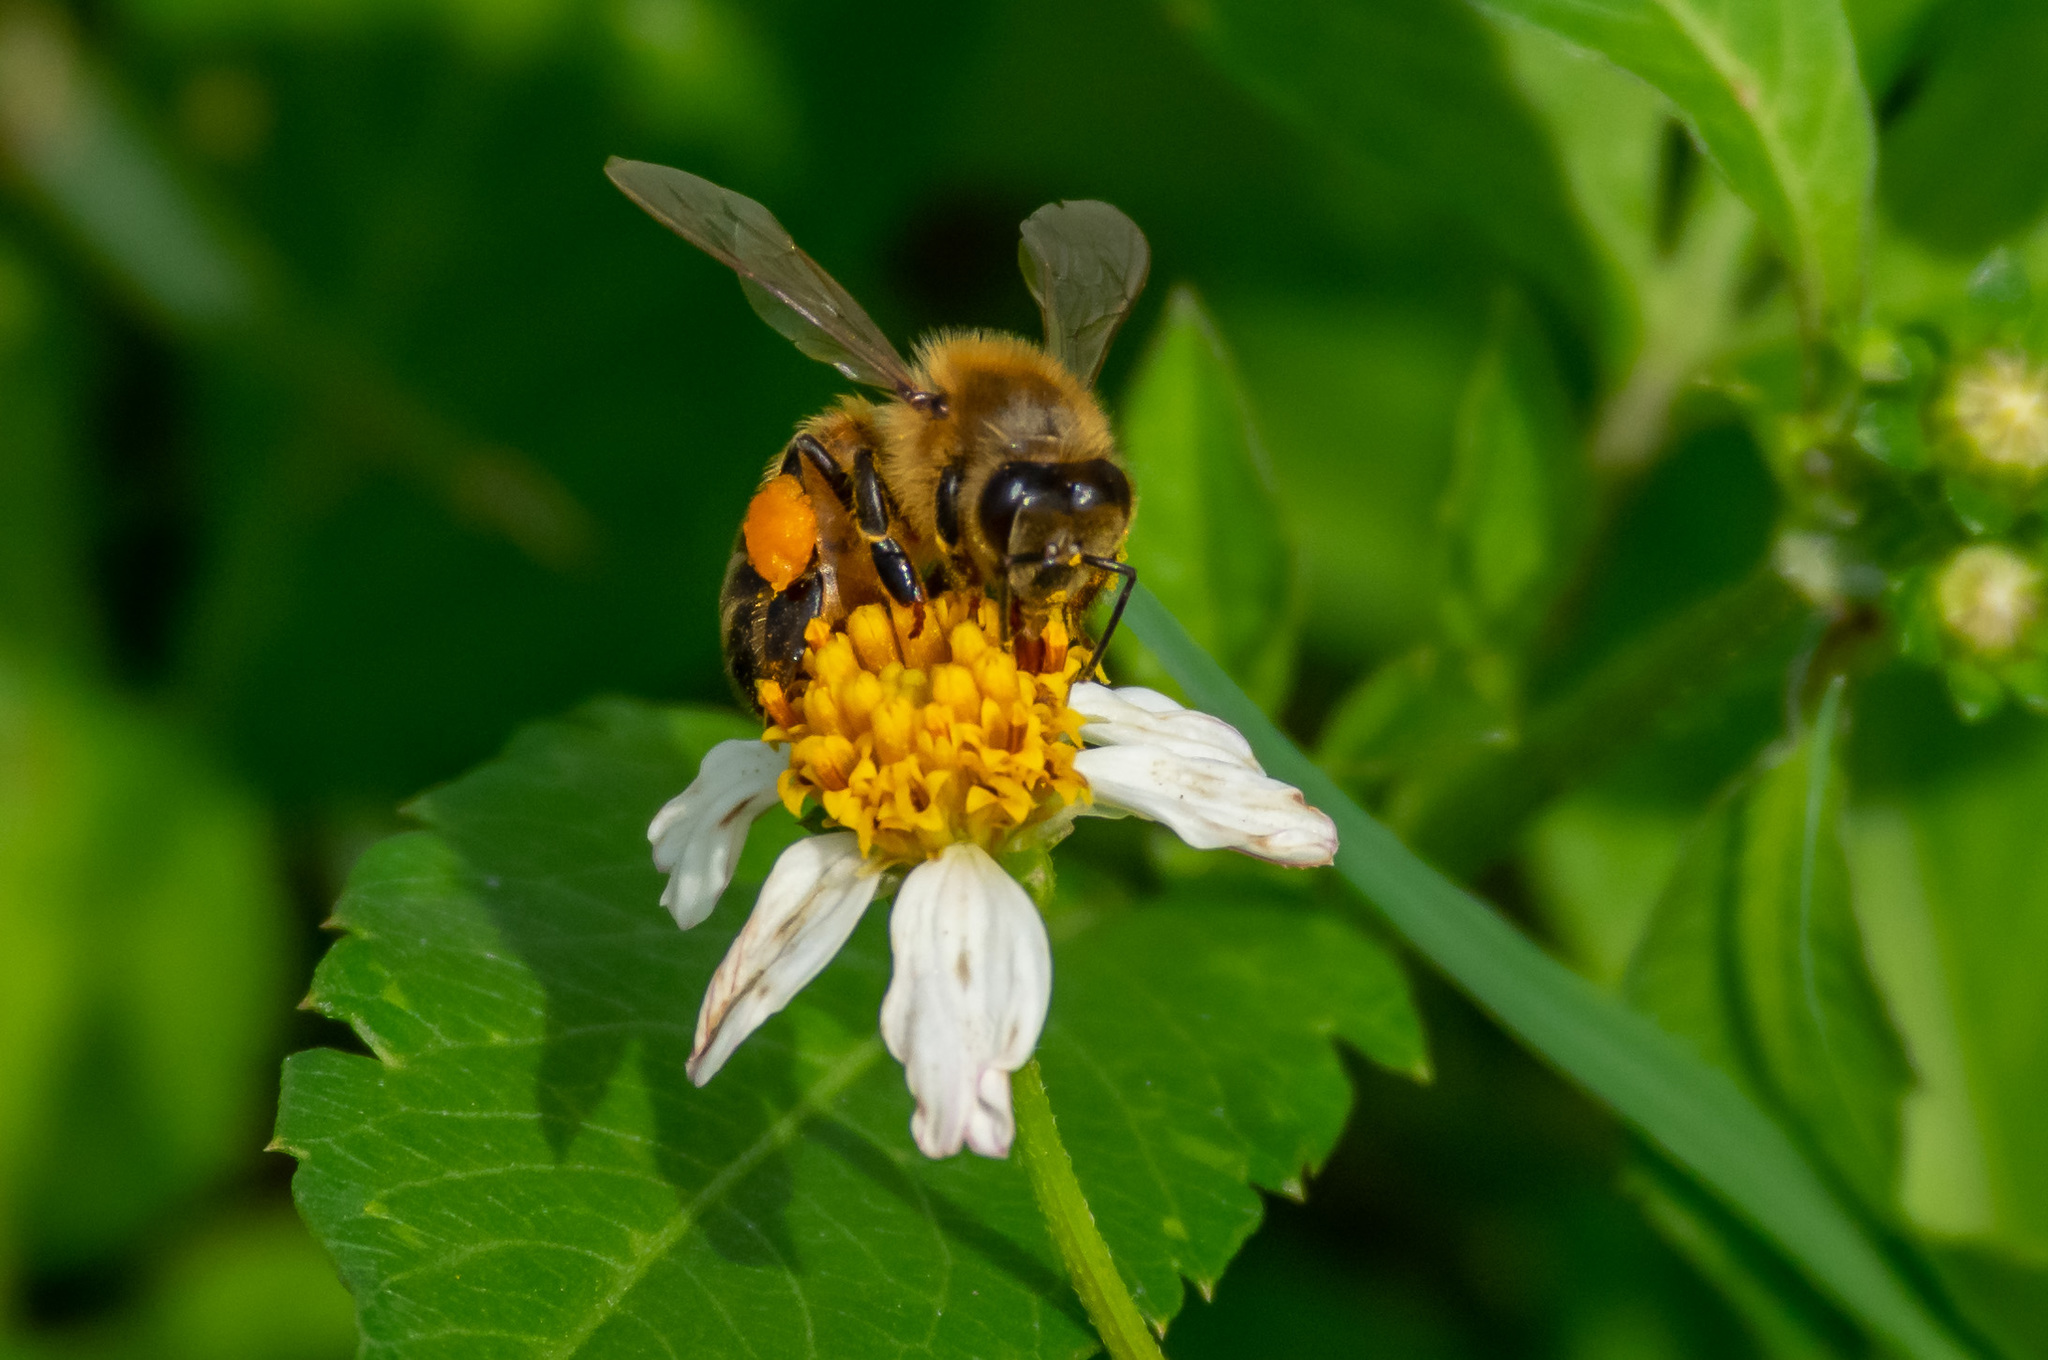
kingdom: Animalia
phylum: Arthropoda
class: Insecta
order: Hymenoptera
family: Apidae
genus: Apis
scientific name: Apis mellifera
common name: Honey bee
